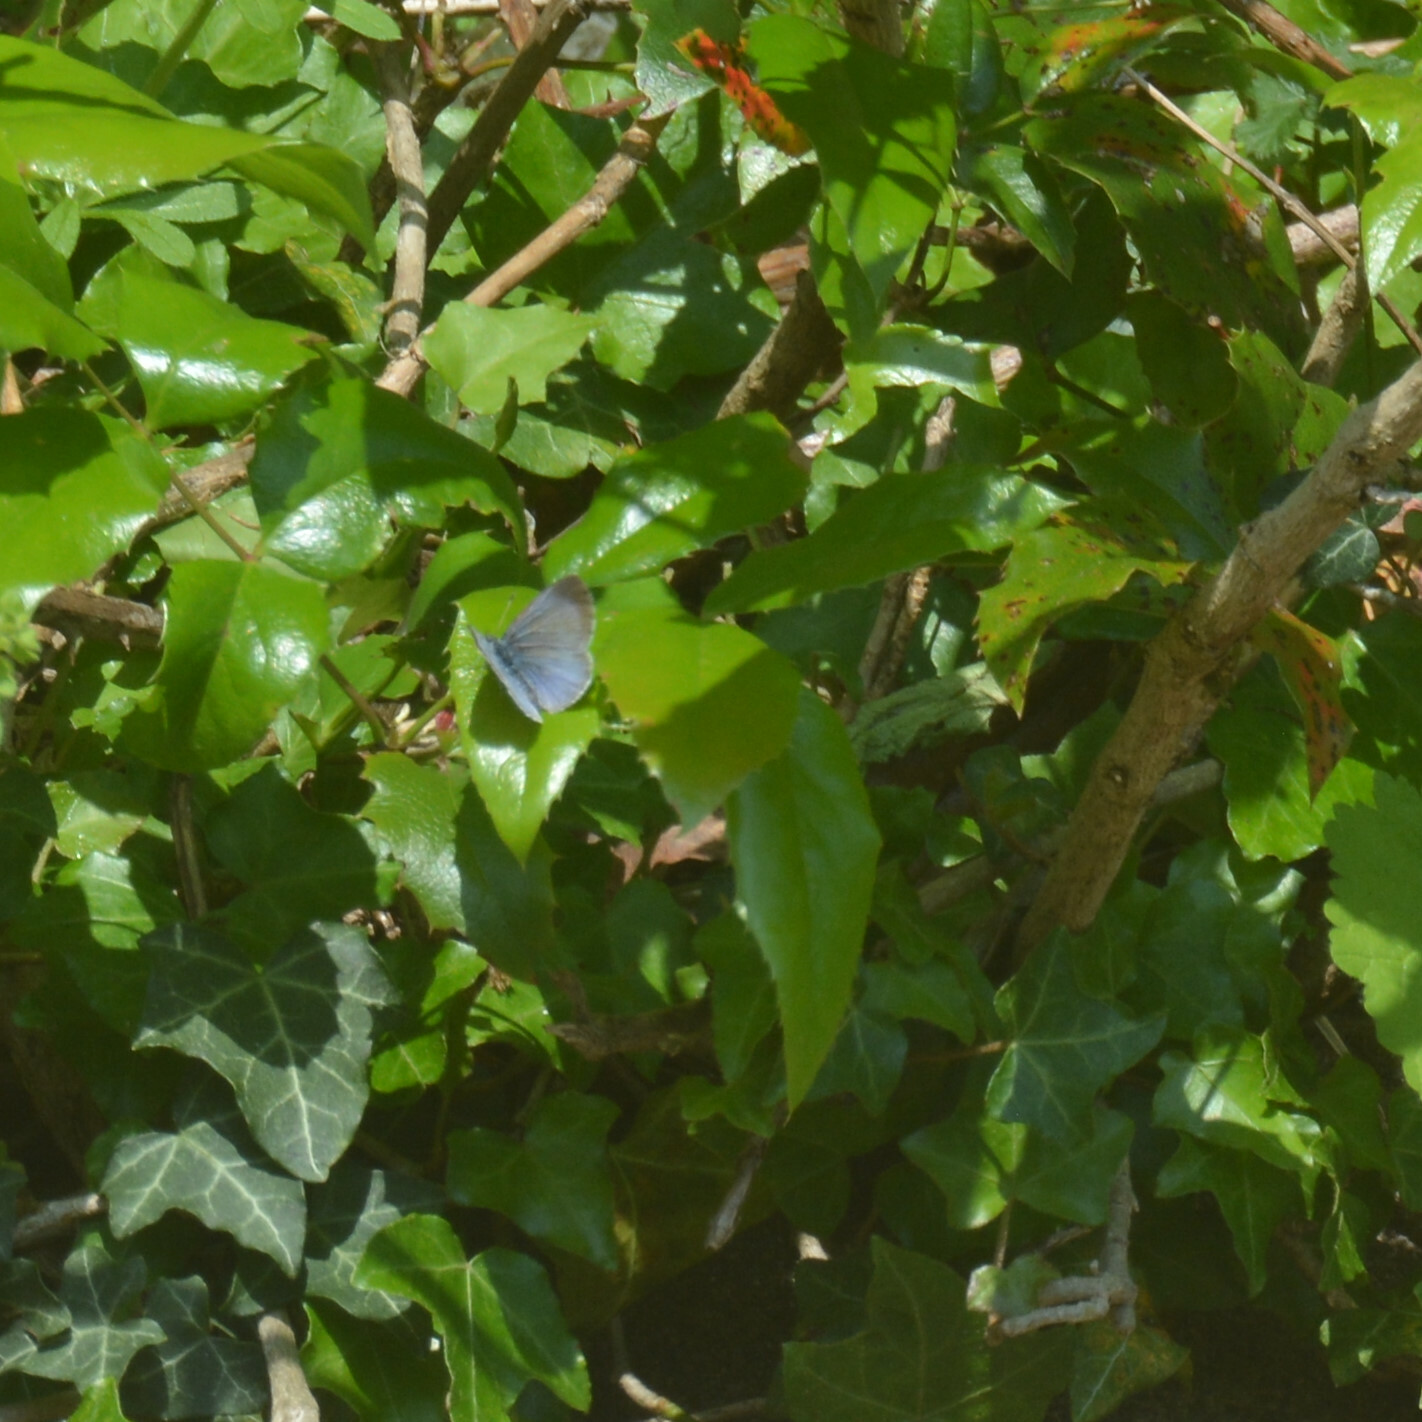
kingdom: Animalia
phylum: Arthropoda
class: Insecta
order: Lepidoptera
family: Lycaenidae
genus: Celastrina
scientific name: Celastrina argiolus
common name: Holly blue
